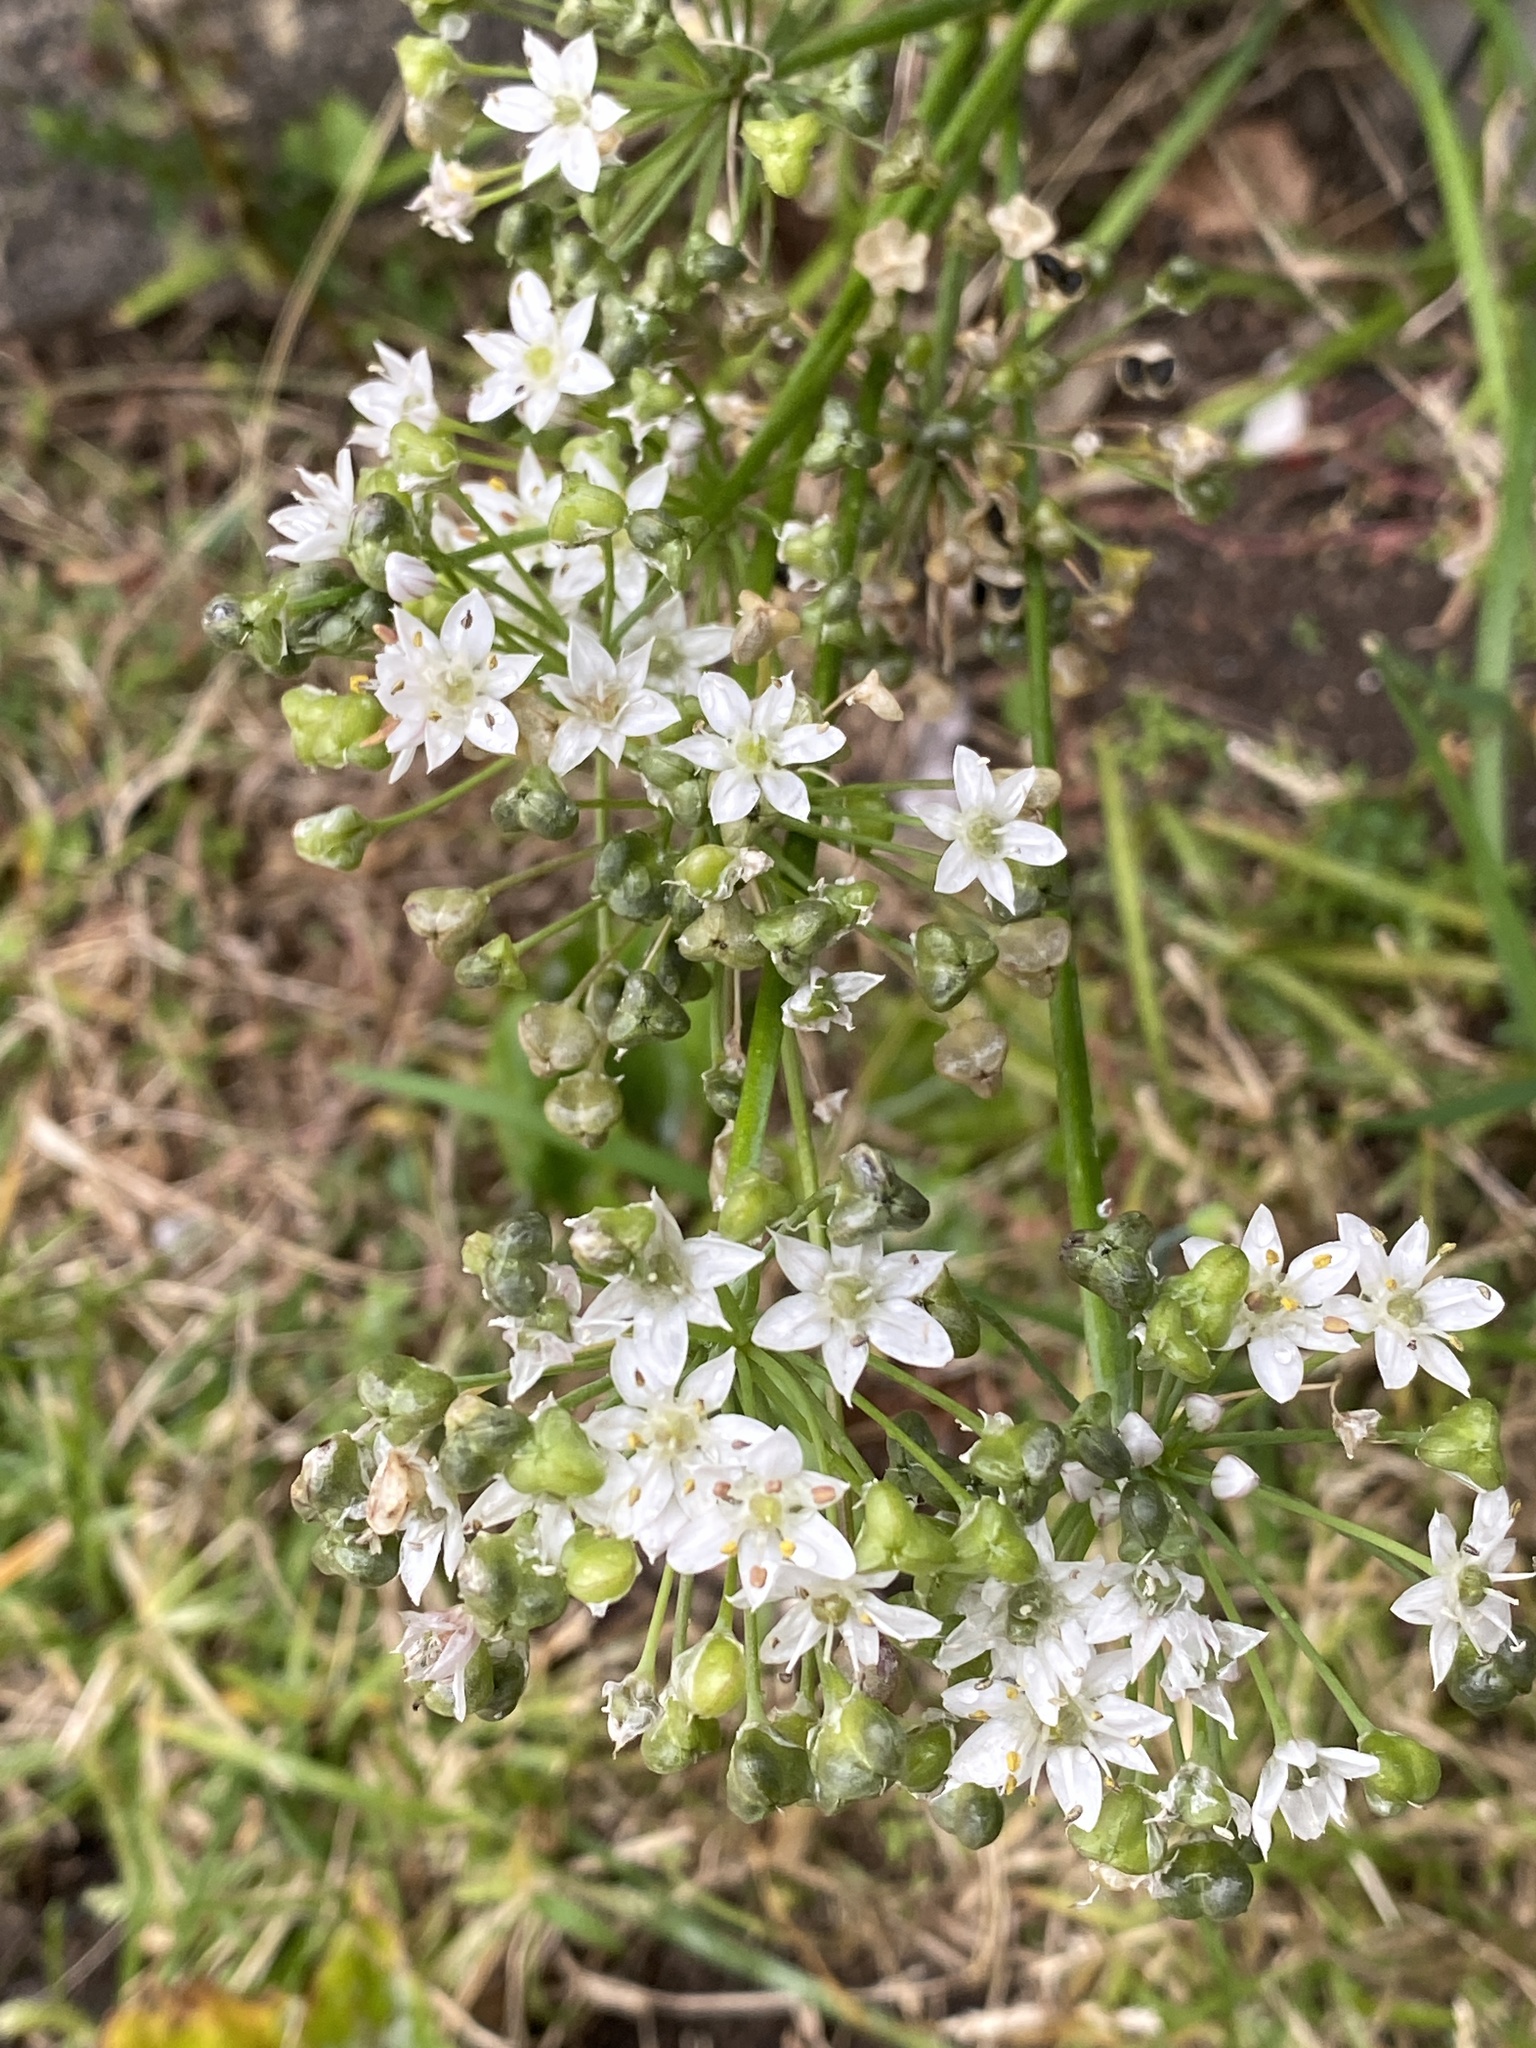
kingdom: Plantae
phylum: Tracheophyta
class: Liliopsida
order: Asparagales
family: Amaryllidaceae
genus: Allium
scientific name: Allium tuberosum
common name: Chinese chives
